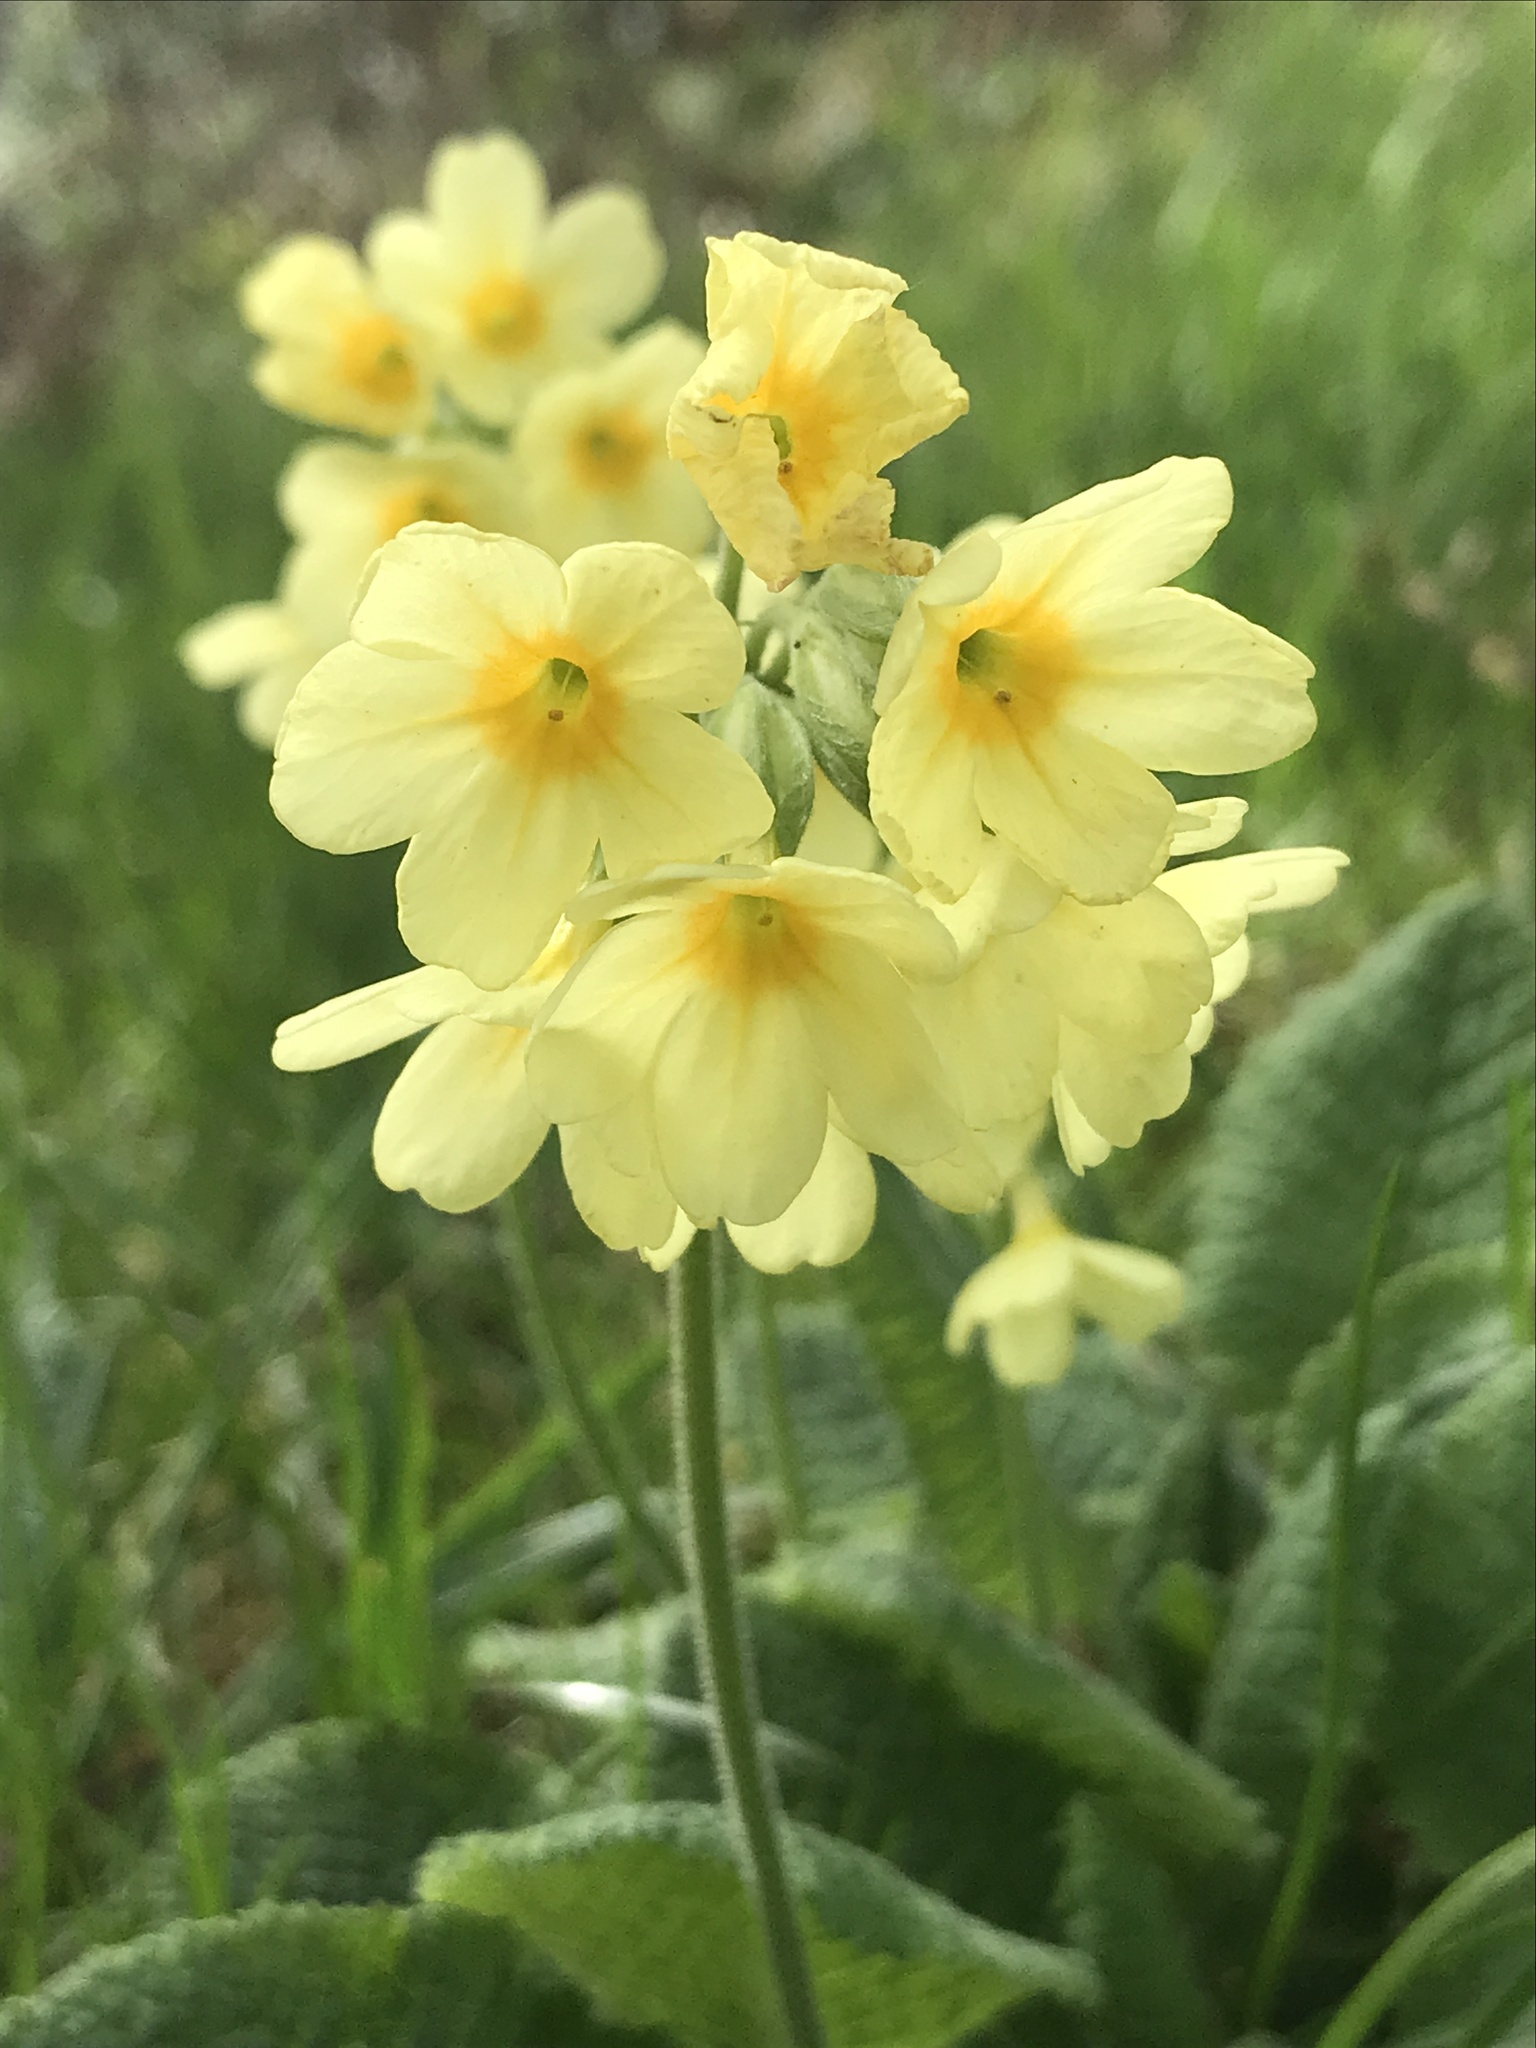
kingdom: Plantae
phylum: Tracheophyta
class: Magnoliopsida
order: Ericales
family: Primulaceae
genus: Primula
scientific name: Primula elatior
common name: Oxlip
